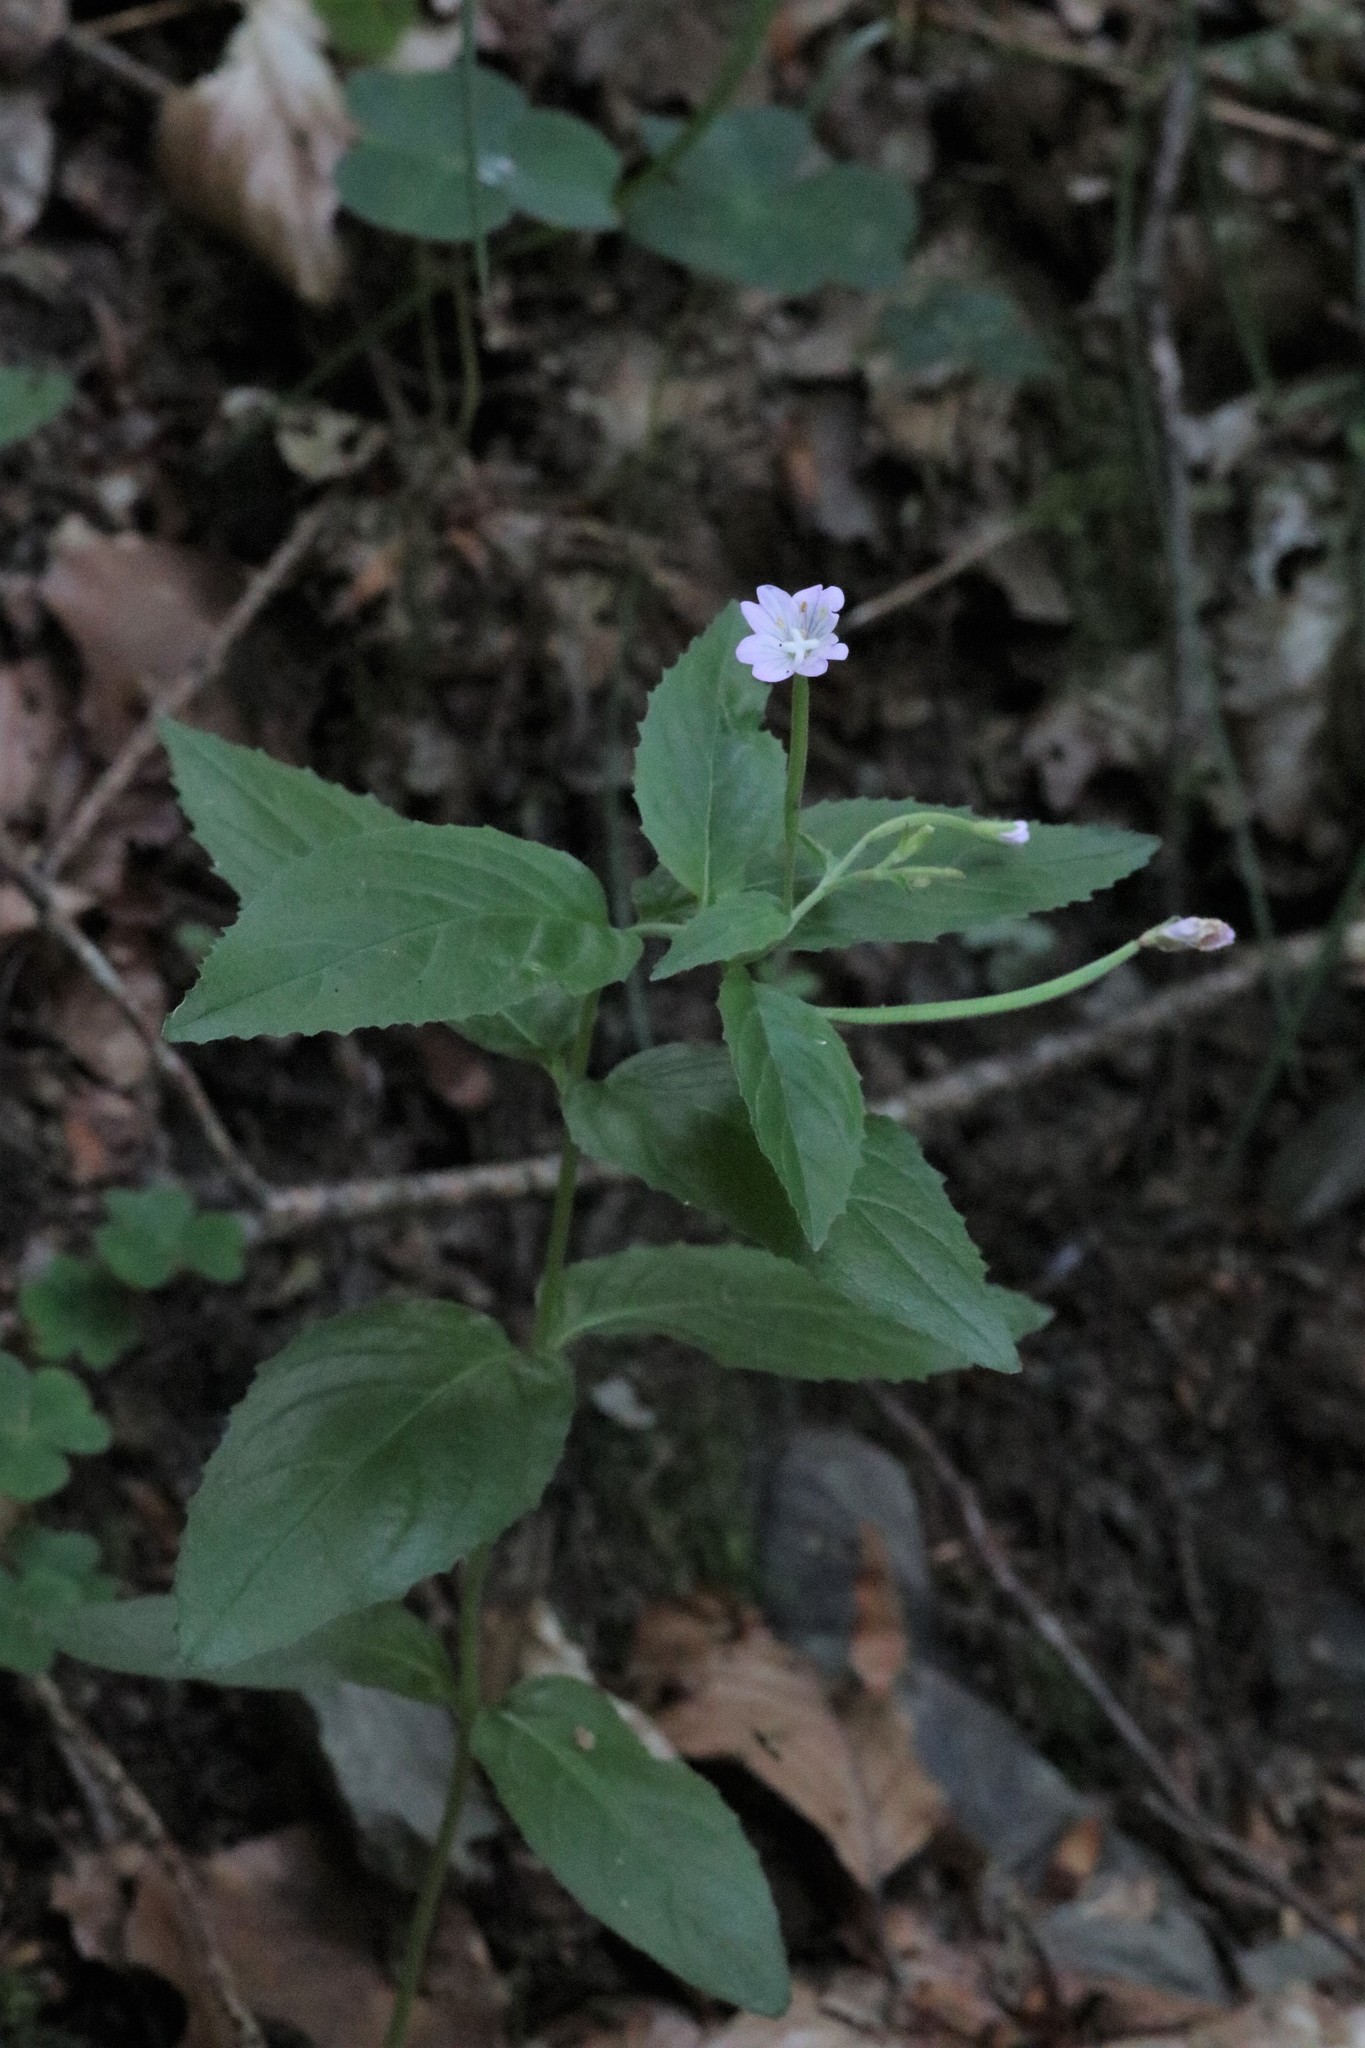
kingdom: Plantae
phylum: Tracheophyta
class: Magnoliopsida
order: Myrtales
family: Onagraceae
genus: Epilobium
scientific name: Epilobium montanum
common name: Broad-leaved willowherb
